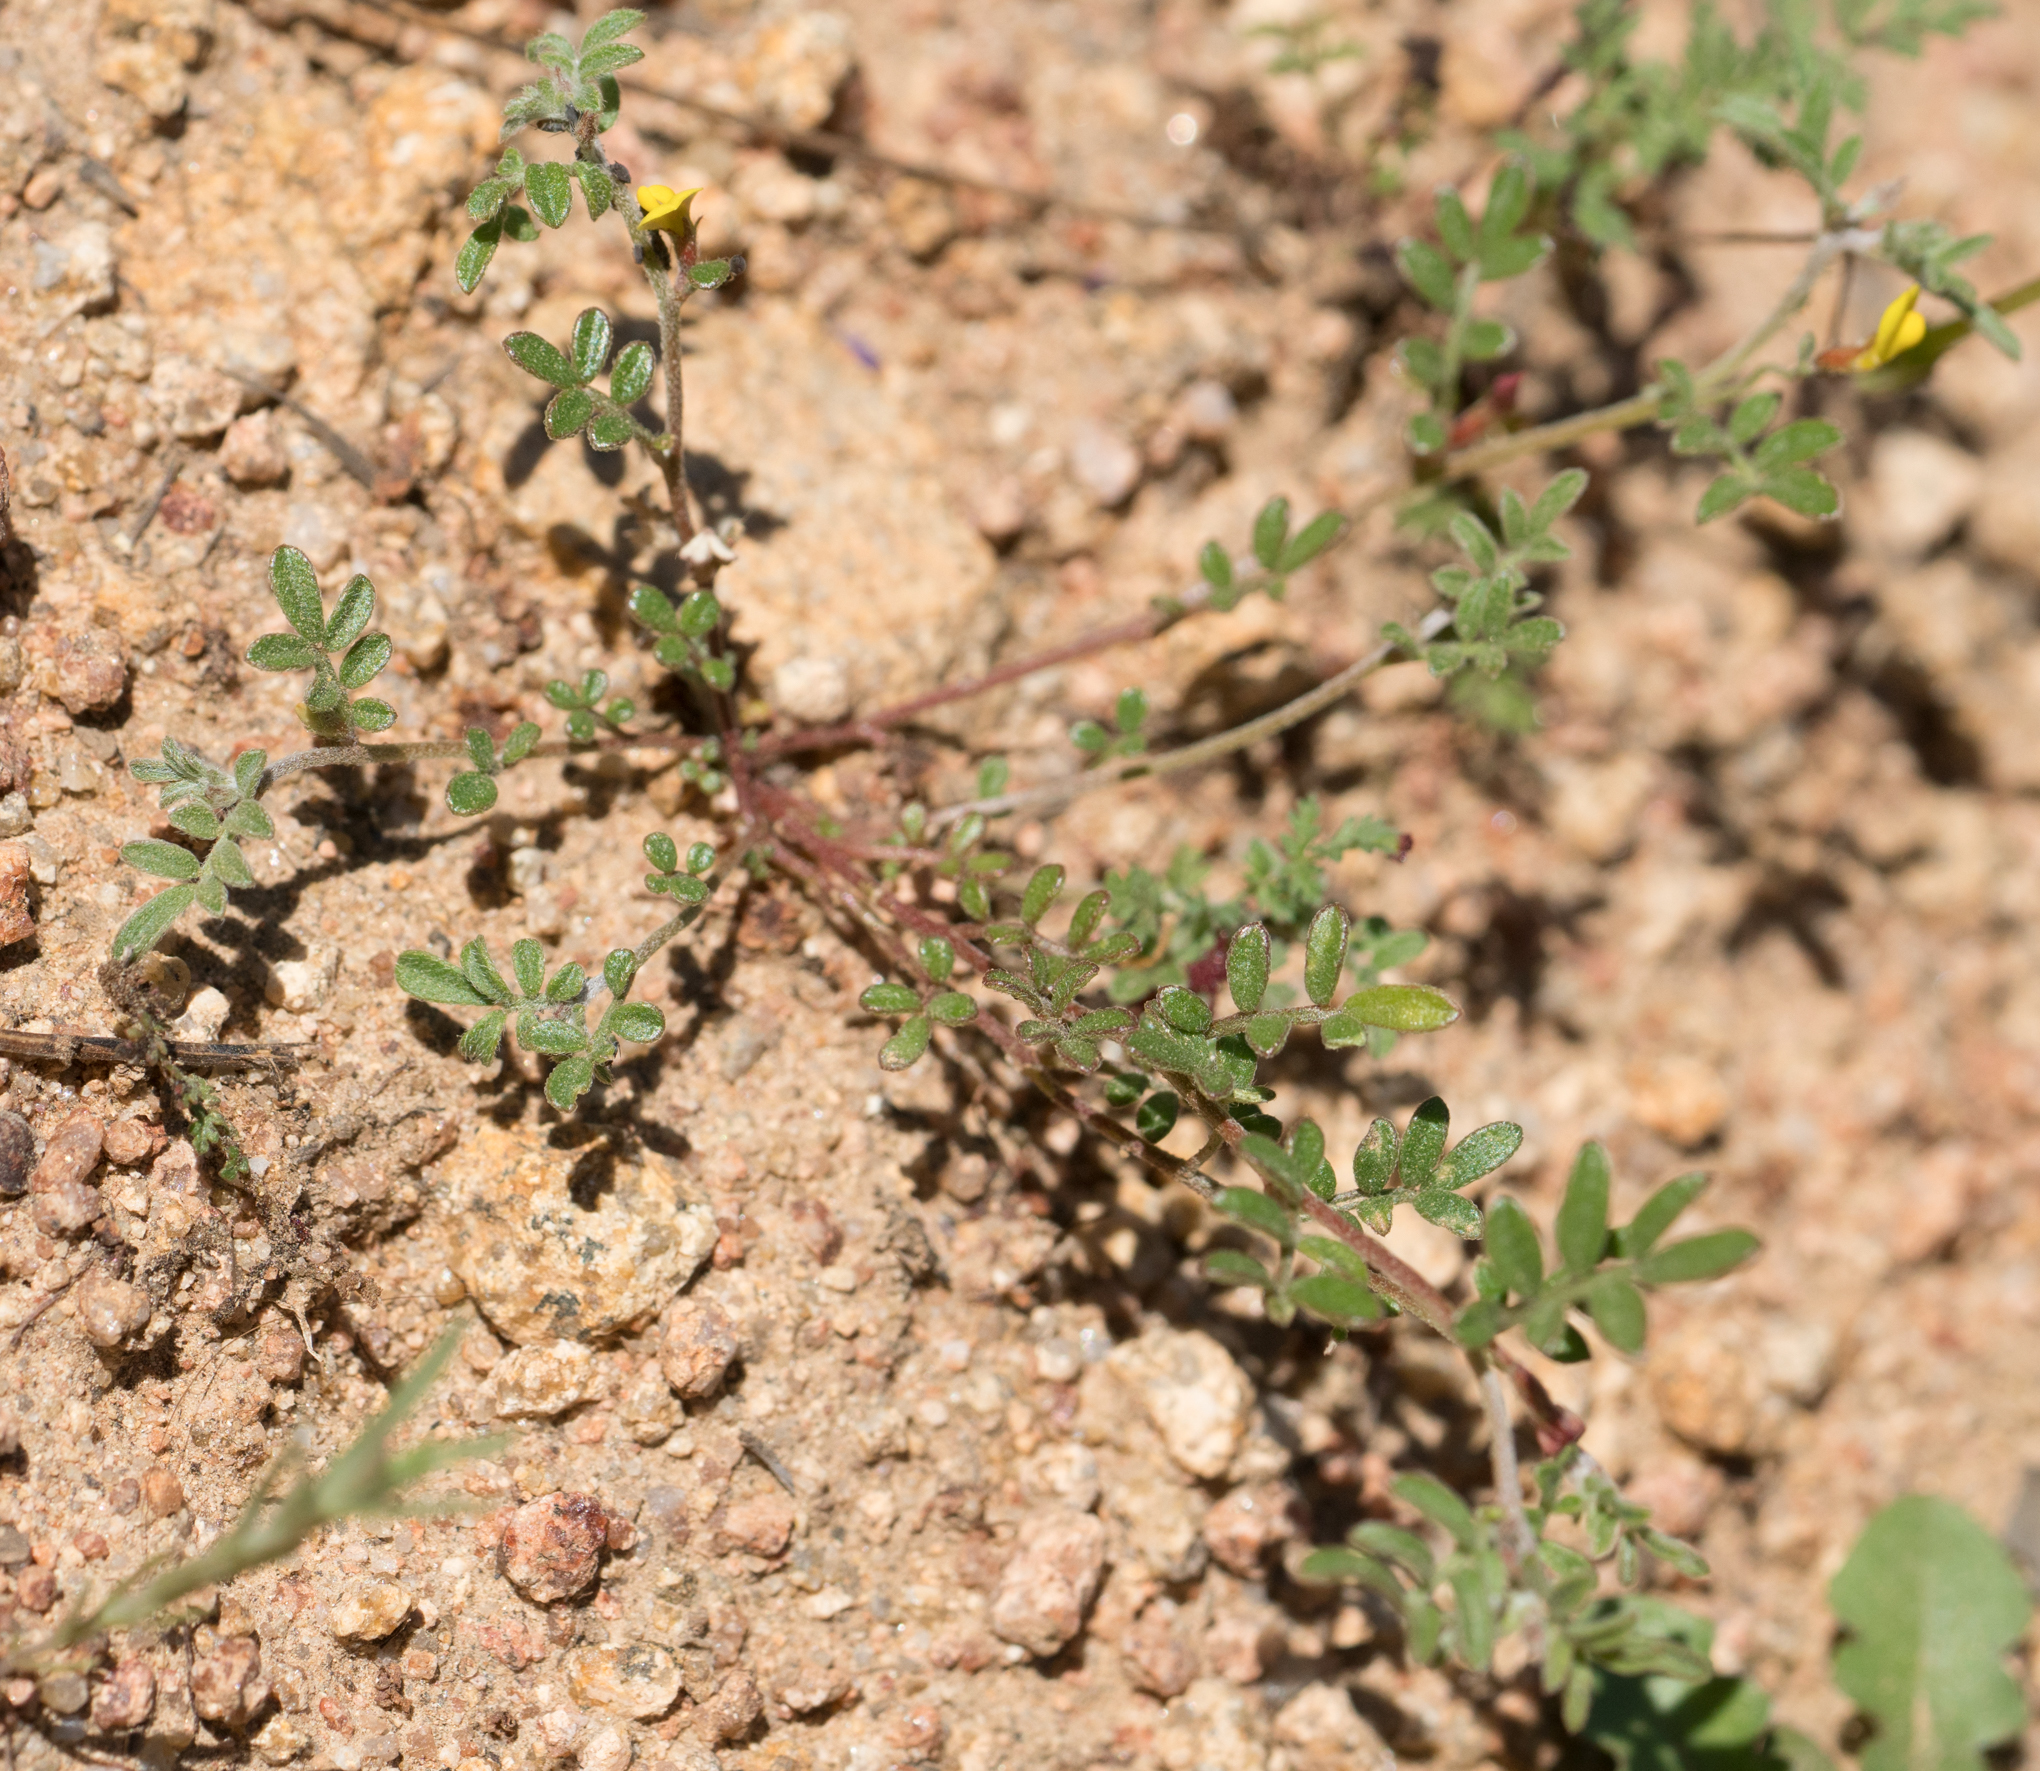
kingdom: Plantae
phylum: Tracheophyta
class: Magnoliopsida
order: Fabales
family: Fabaceae
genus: Acmispon
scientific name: Acmispon strigosus
